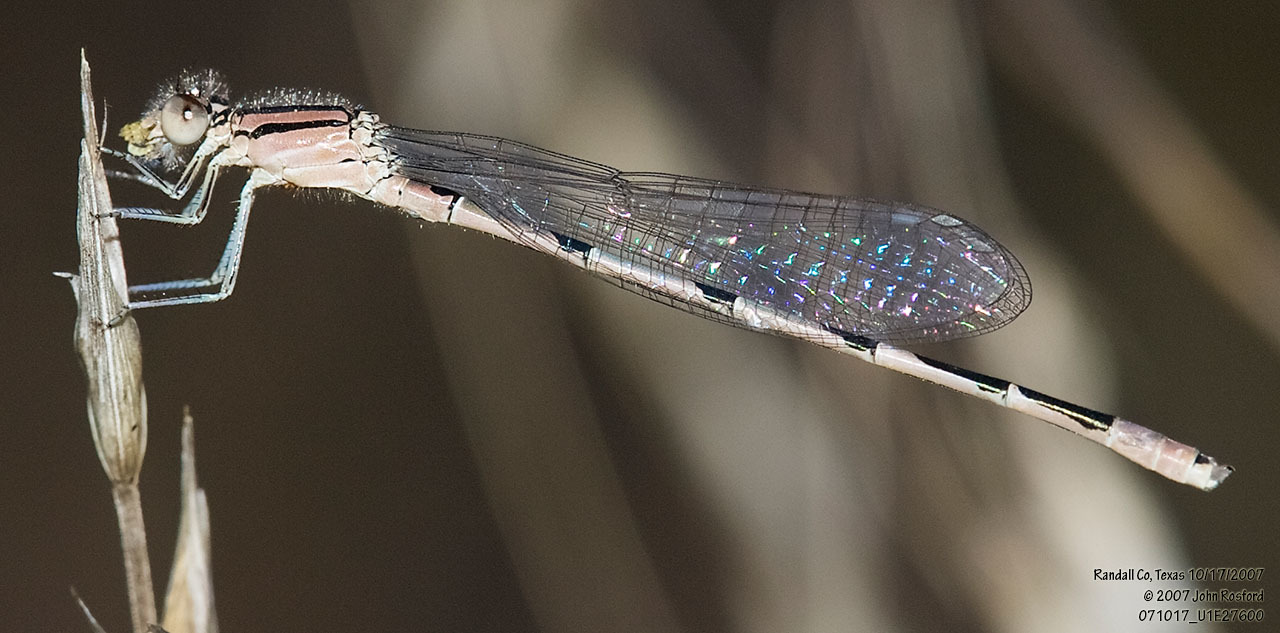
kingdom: Animalia
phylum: Arthropoda
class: Insecta
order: Odonata
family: Coenagrionidae
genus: Enallagma
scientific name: Enallagma civile
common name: Damselfly
